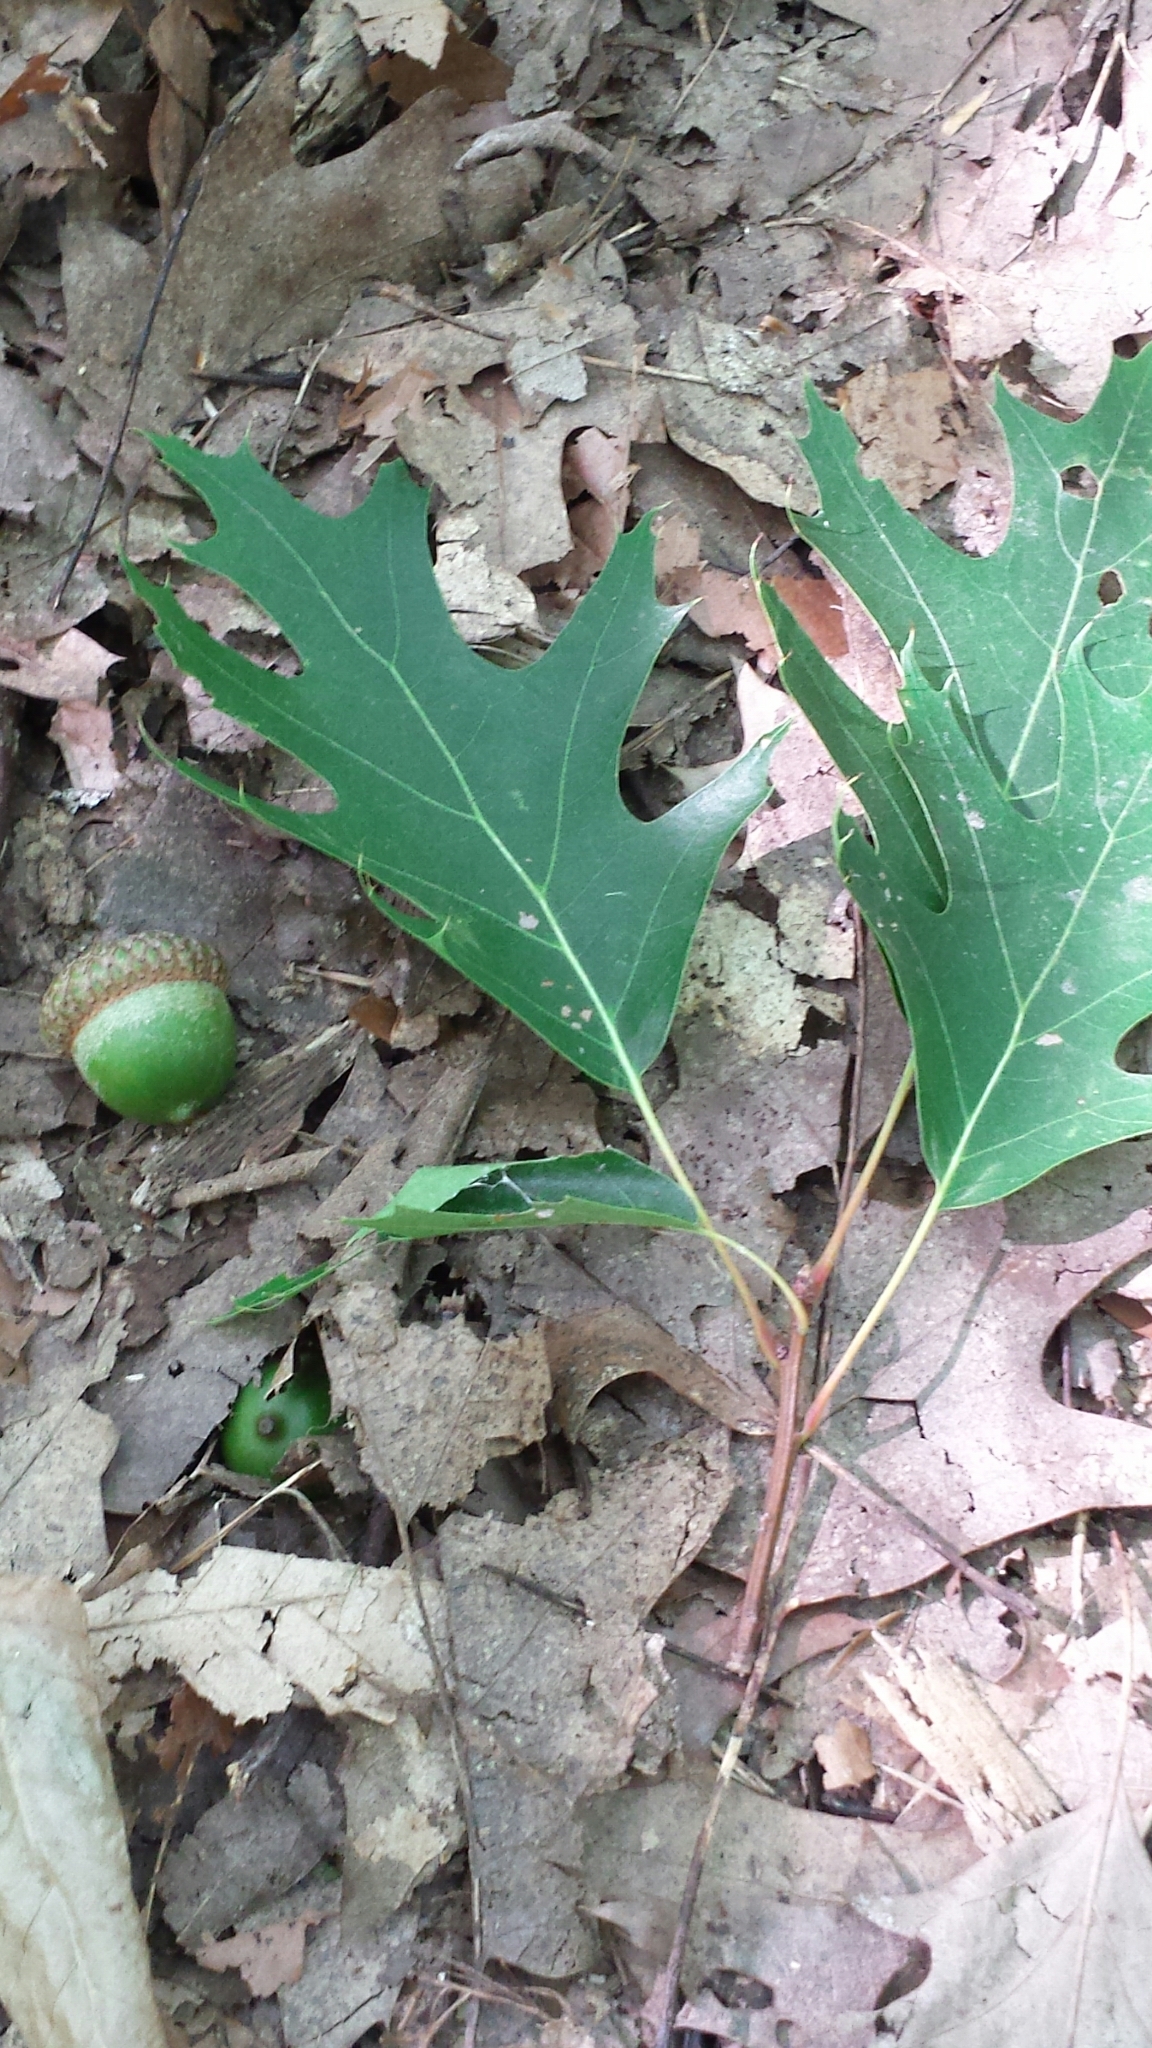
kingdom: Plantae
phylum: Tracheophyta
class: Magnoliopsida
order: Fagales
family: Fagaceae
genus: Quercus
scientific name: Quercus rubra
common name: Red oak
